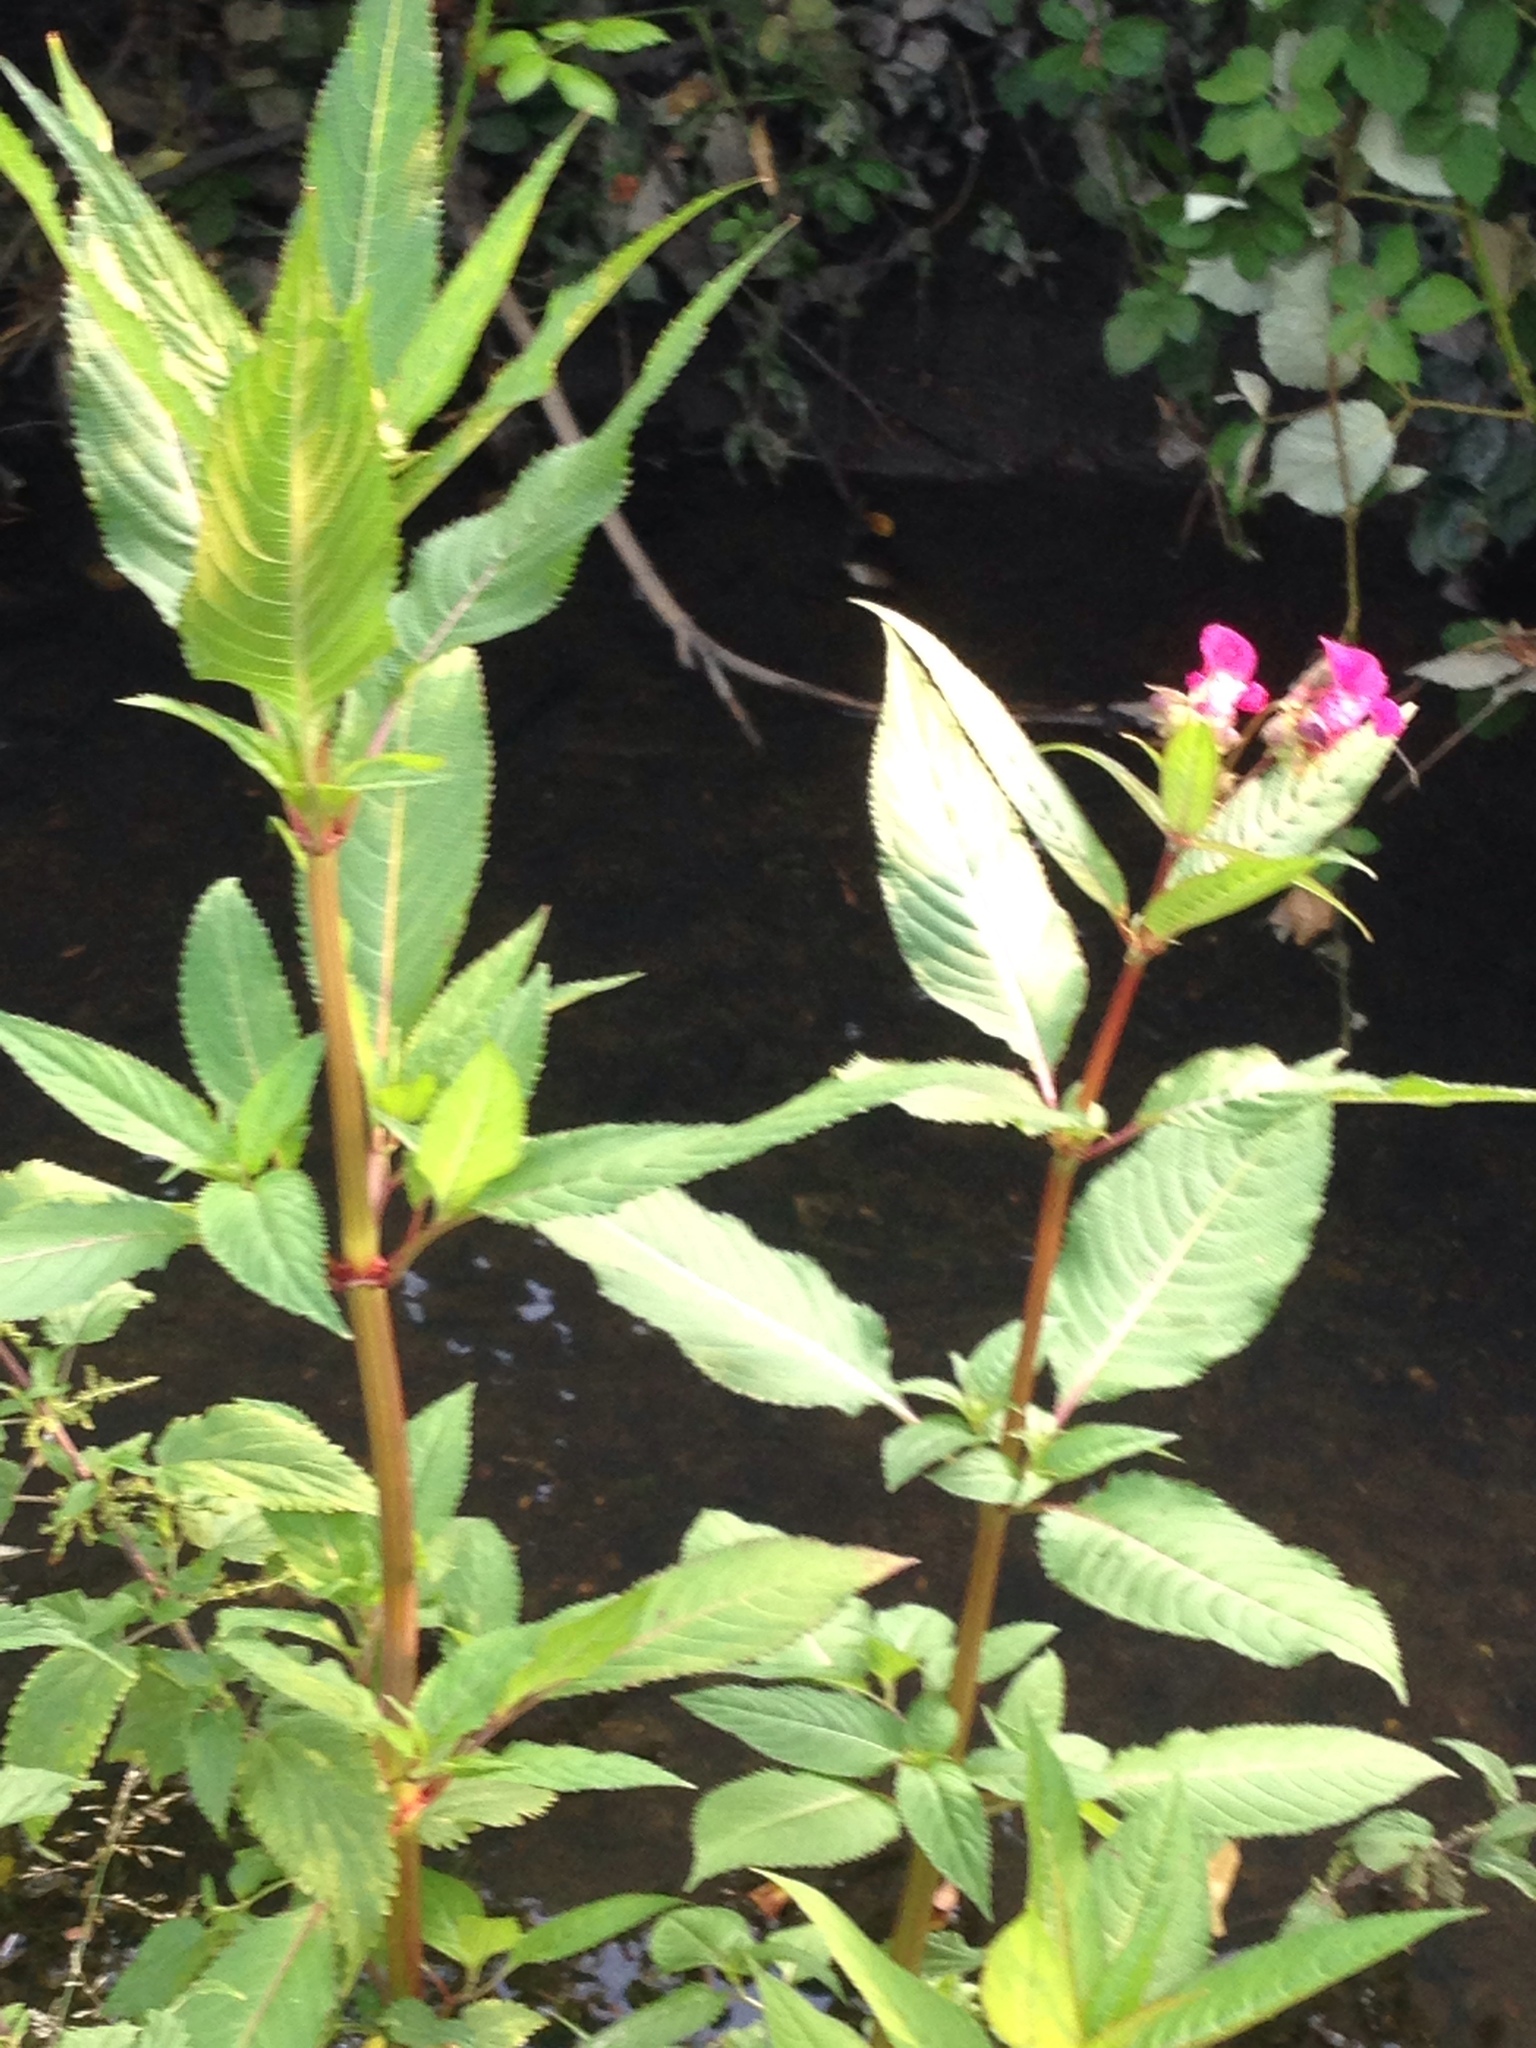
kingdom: Plantae
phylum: Tracheophyta
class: Magnoliopsida
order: Ericales
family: Balsaminaceae
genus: Impatiens
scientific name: Impatiens glandulifera
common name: Himalayan balsam
